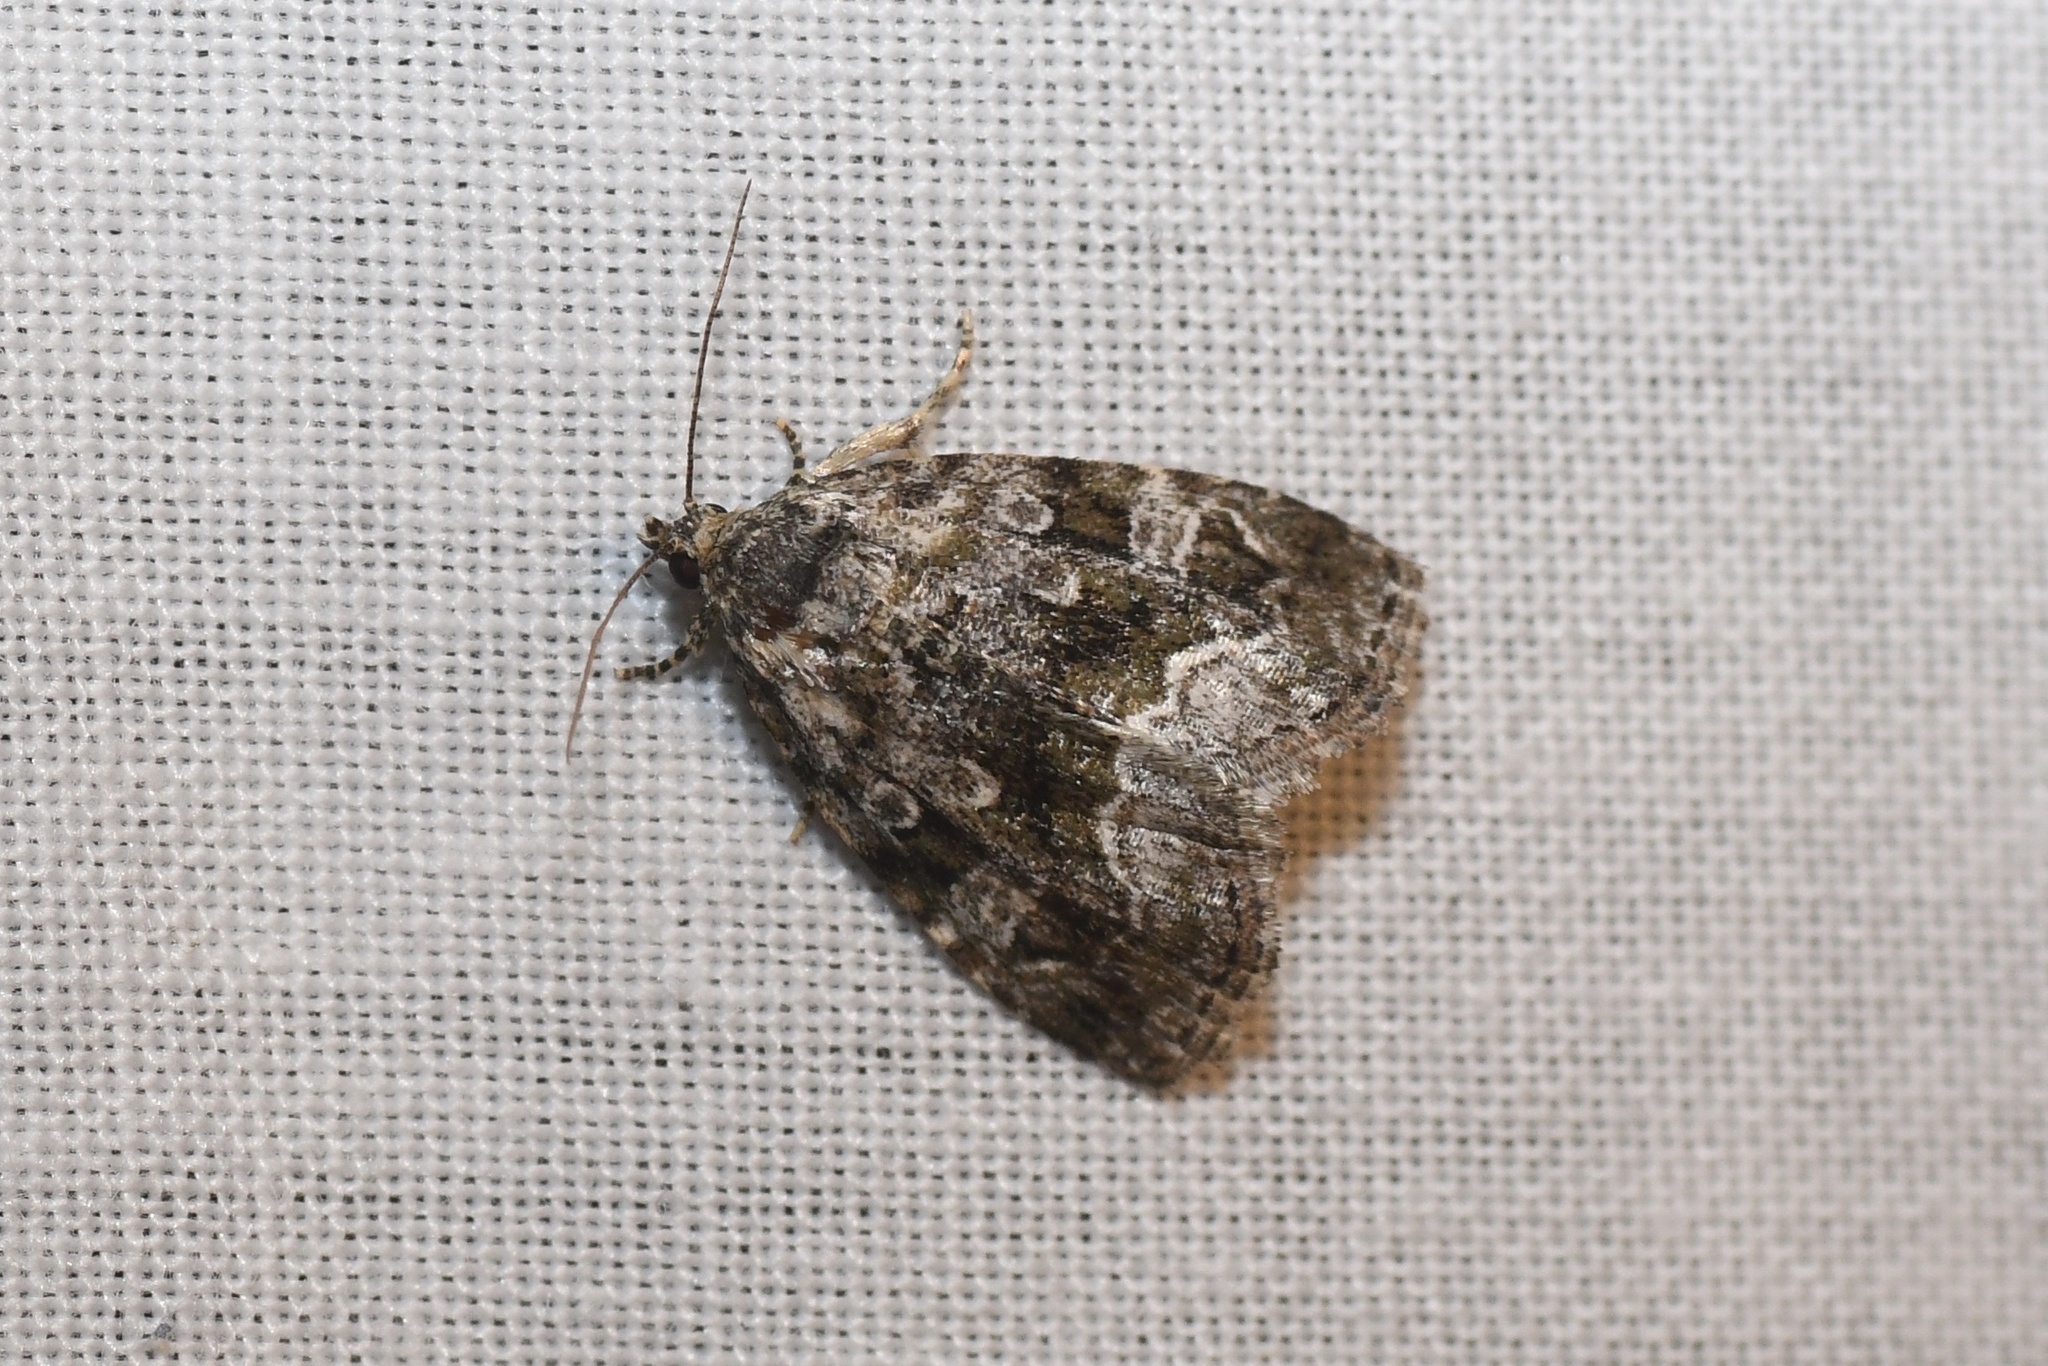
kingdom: Animalia
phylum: Arthropoda
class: Insecta
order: Lepidoptera
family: Noctuidae
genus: Protodeltote
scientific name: Protodeltote muscosula
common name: Large mossy glyph
